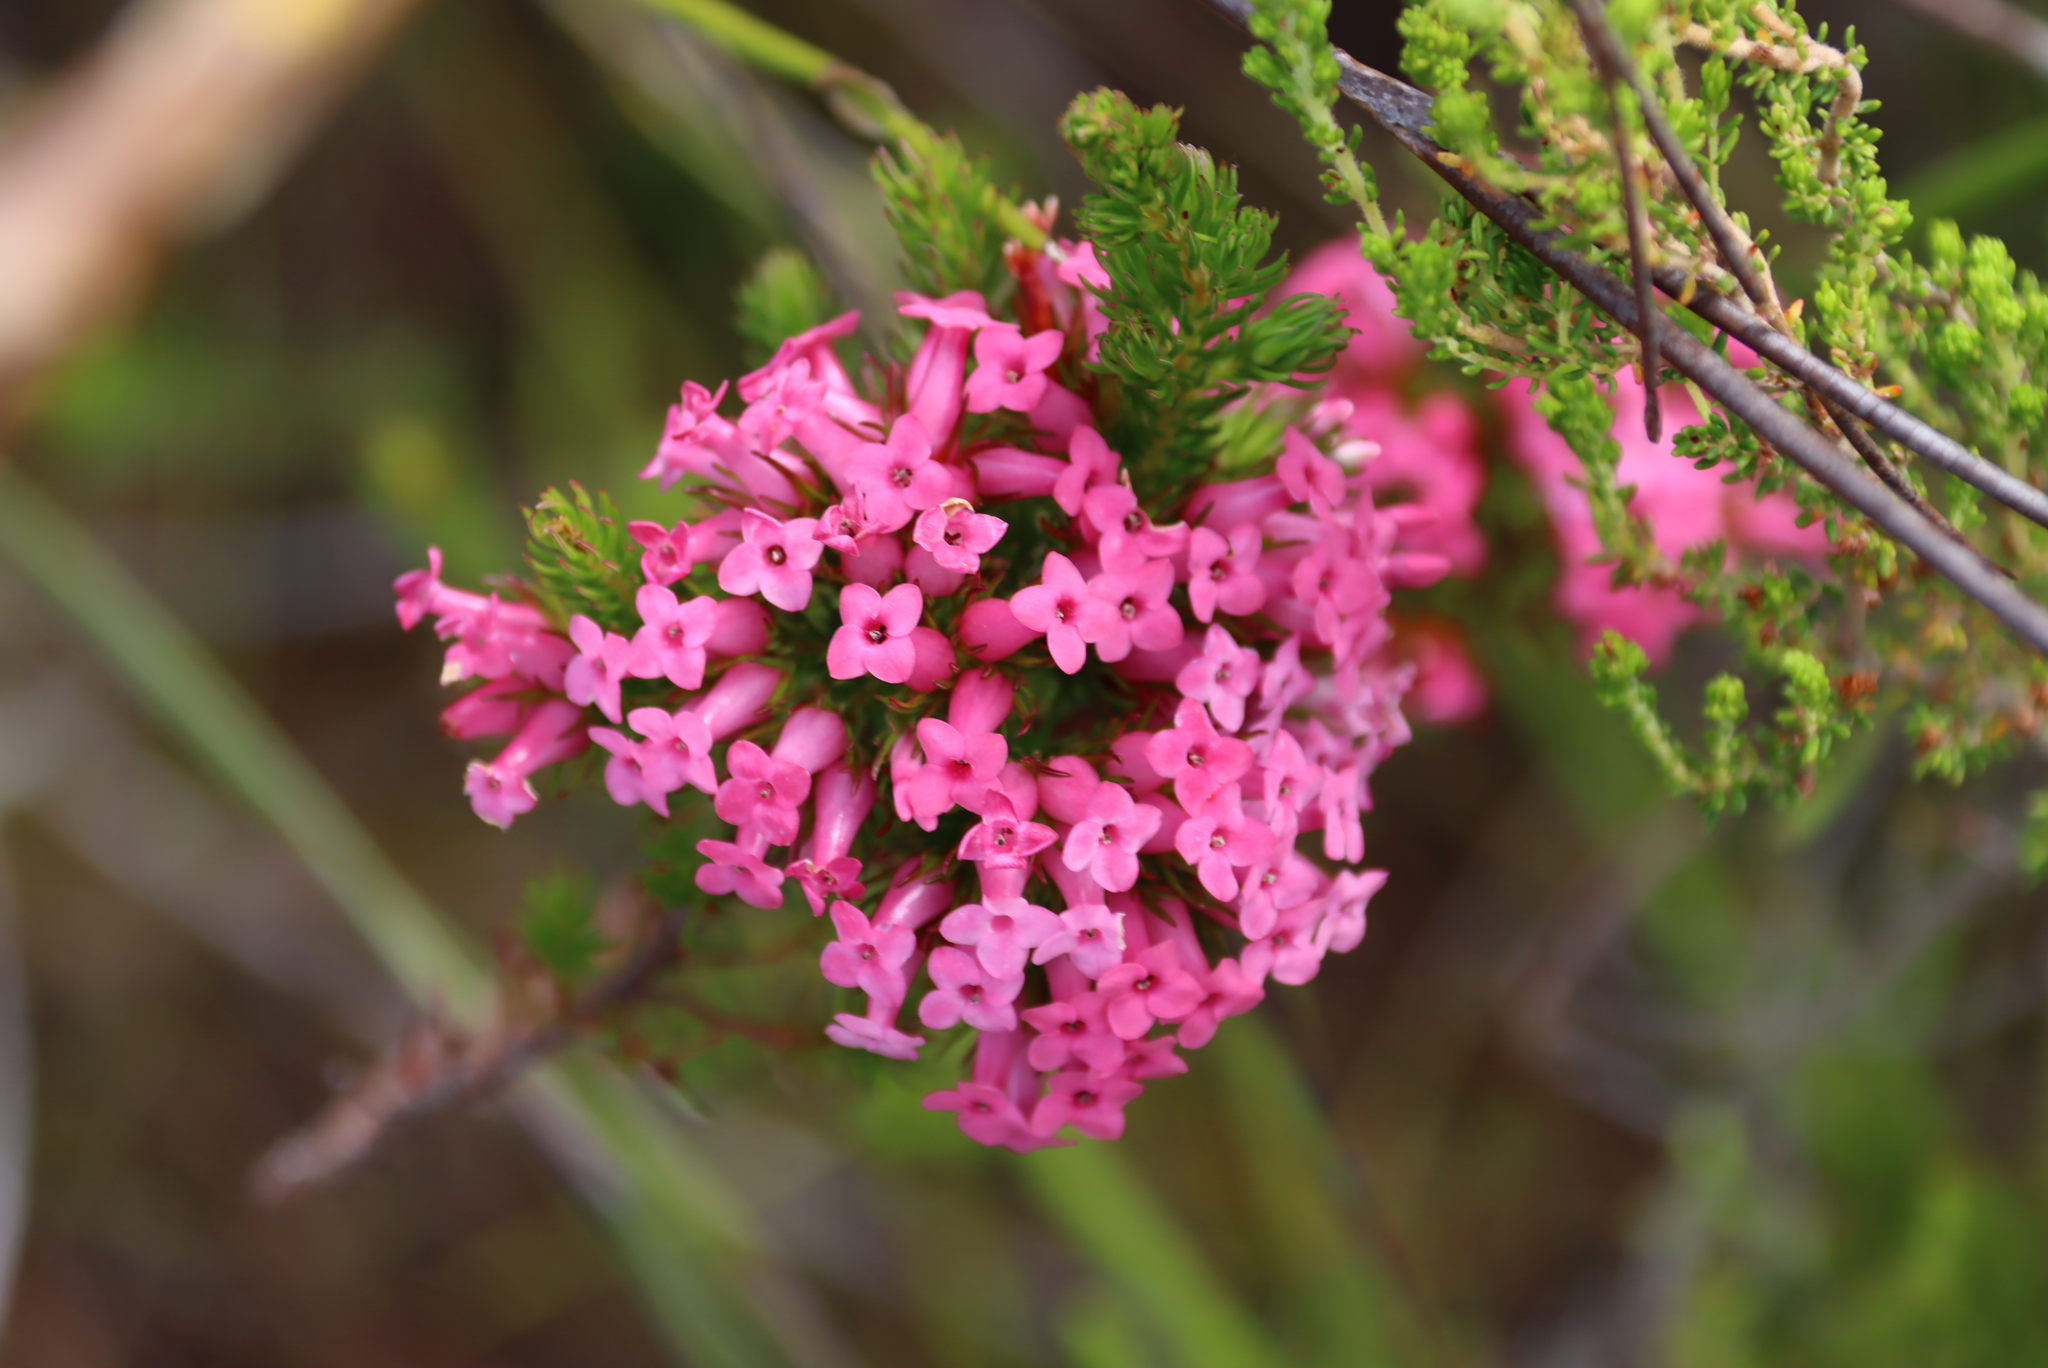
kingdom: Plantae
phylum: Tracheophyta
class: Magnoliopsida
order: Ericales
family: Ericaceae
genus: Erica
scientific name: Erica
